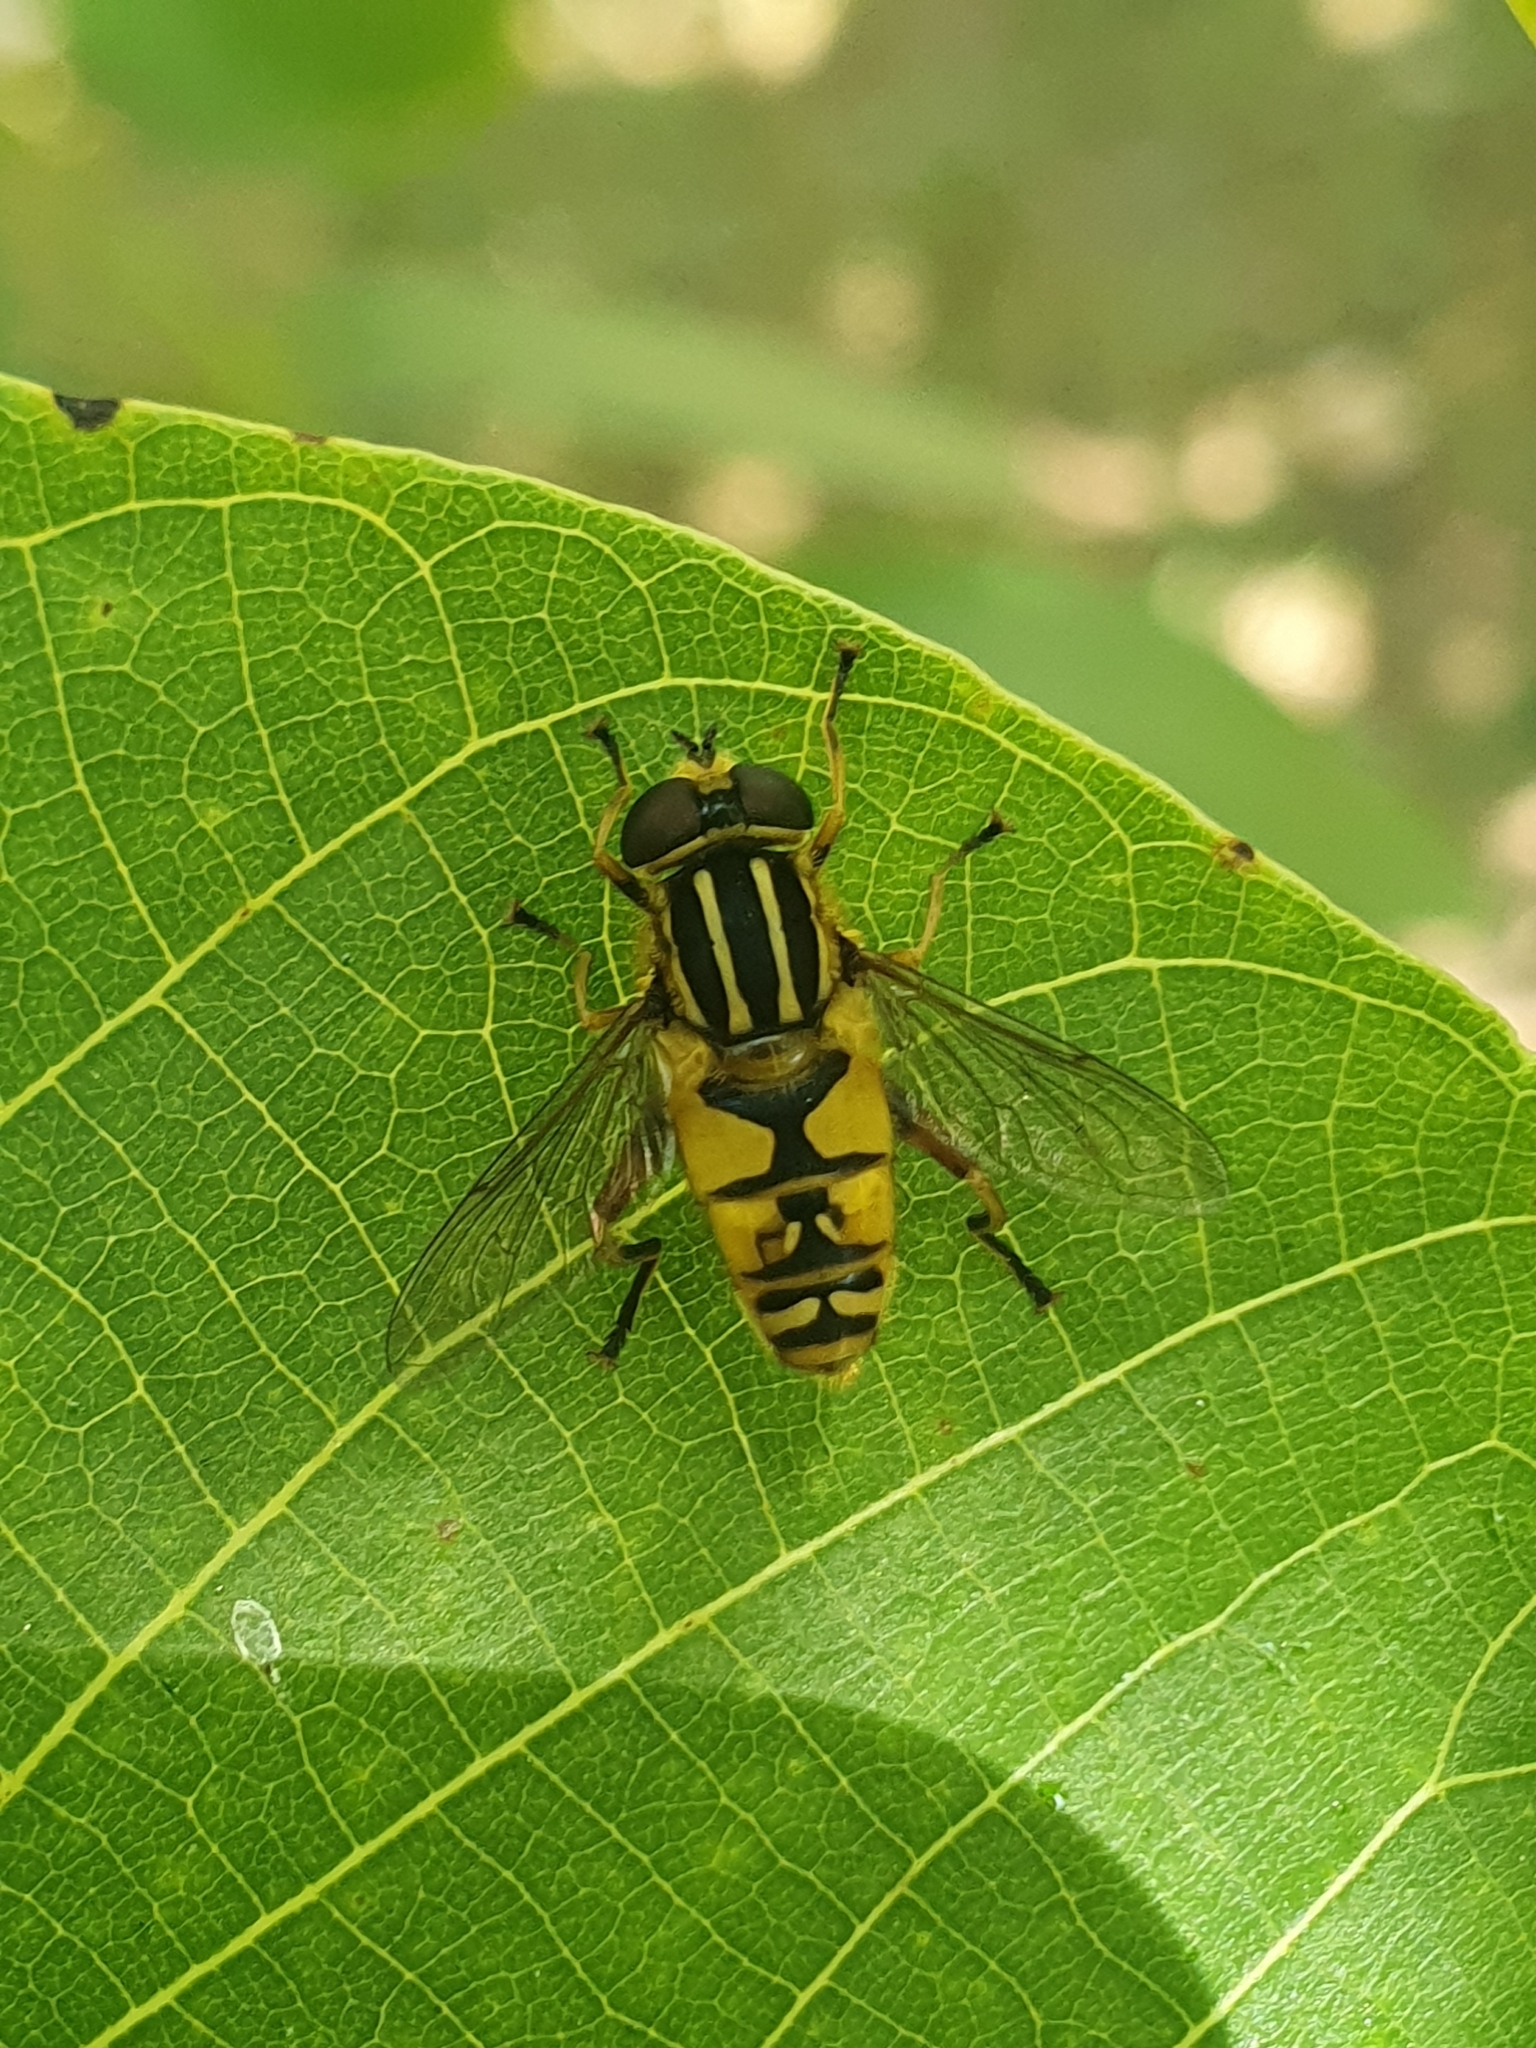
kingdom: Animalia
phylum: Arthropoda
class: Insecta
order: Diptera
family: Syrphidae
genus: Helophilus
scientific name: Helophilus pendulus
